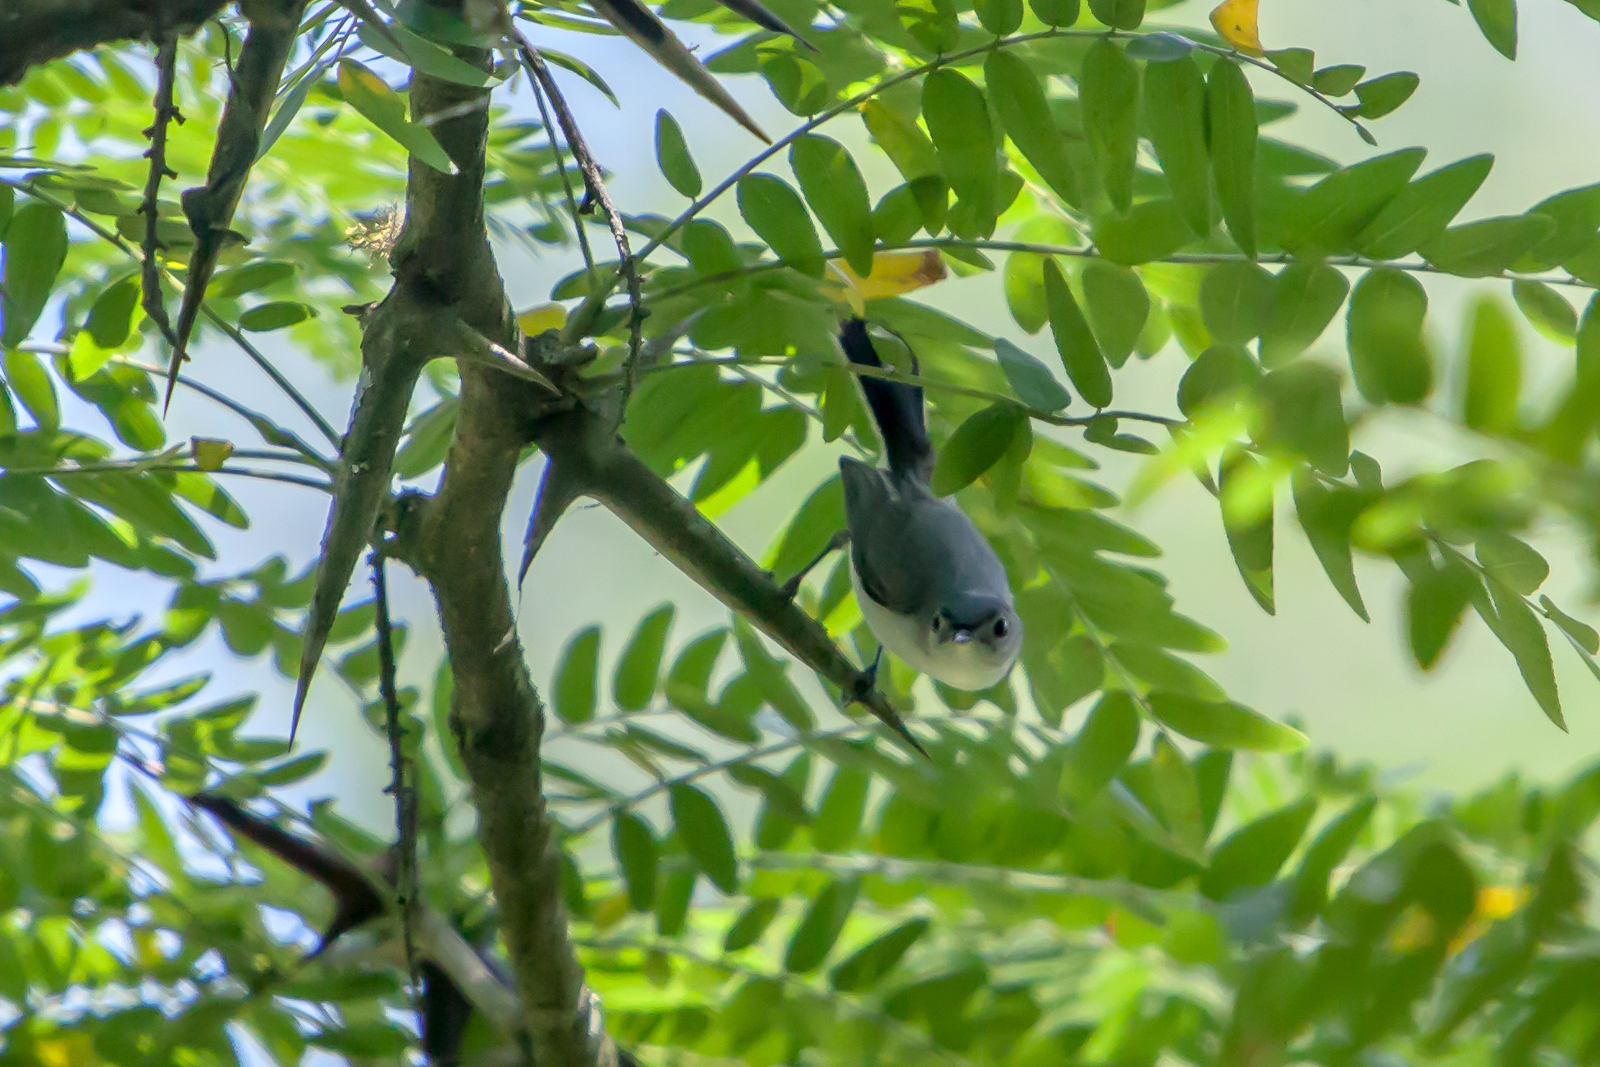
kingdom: Animalia
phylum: Chordata
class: Aves
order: Passeriformes
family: Polioptilidae
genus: Polioptila
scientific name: Polioptila caerulea
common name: Blue-gray gnatcatcher
